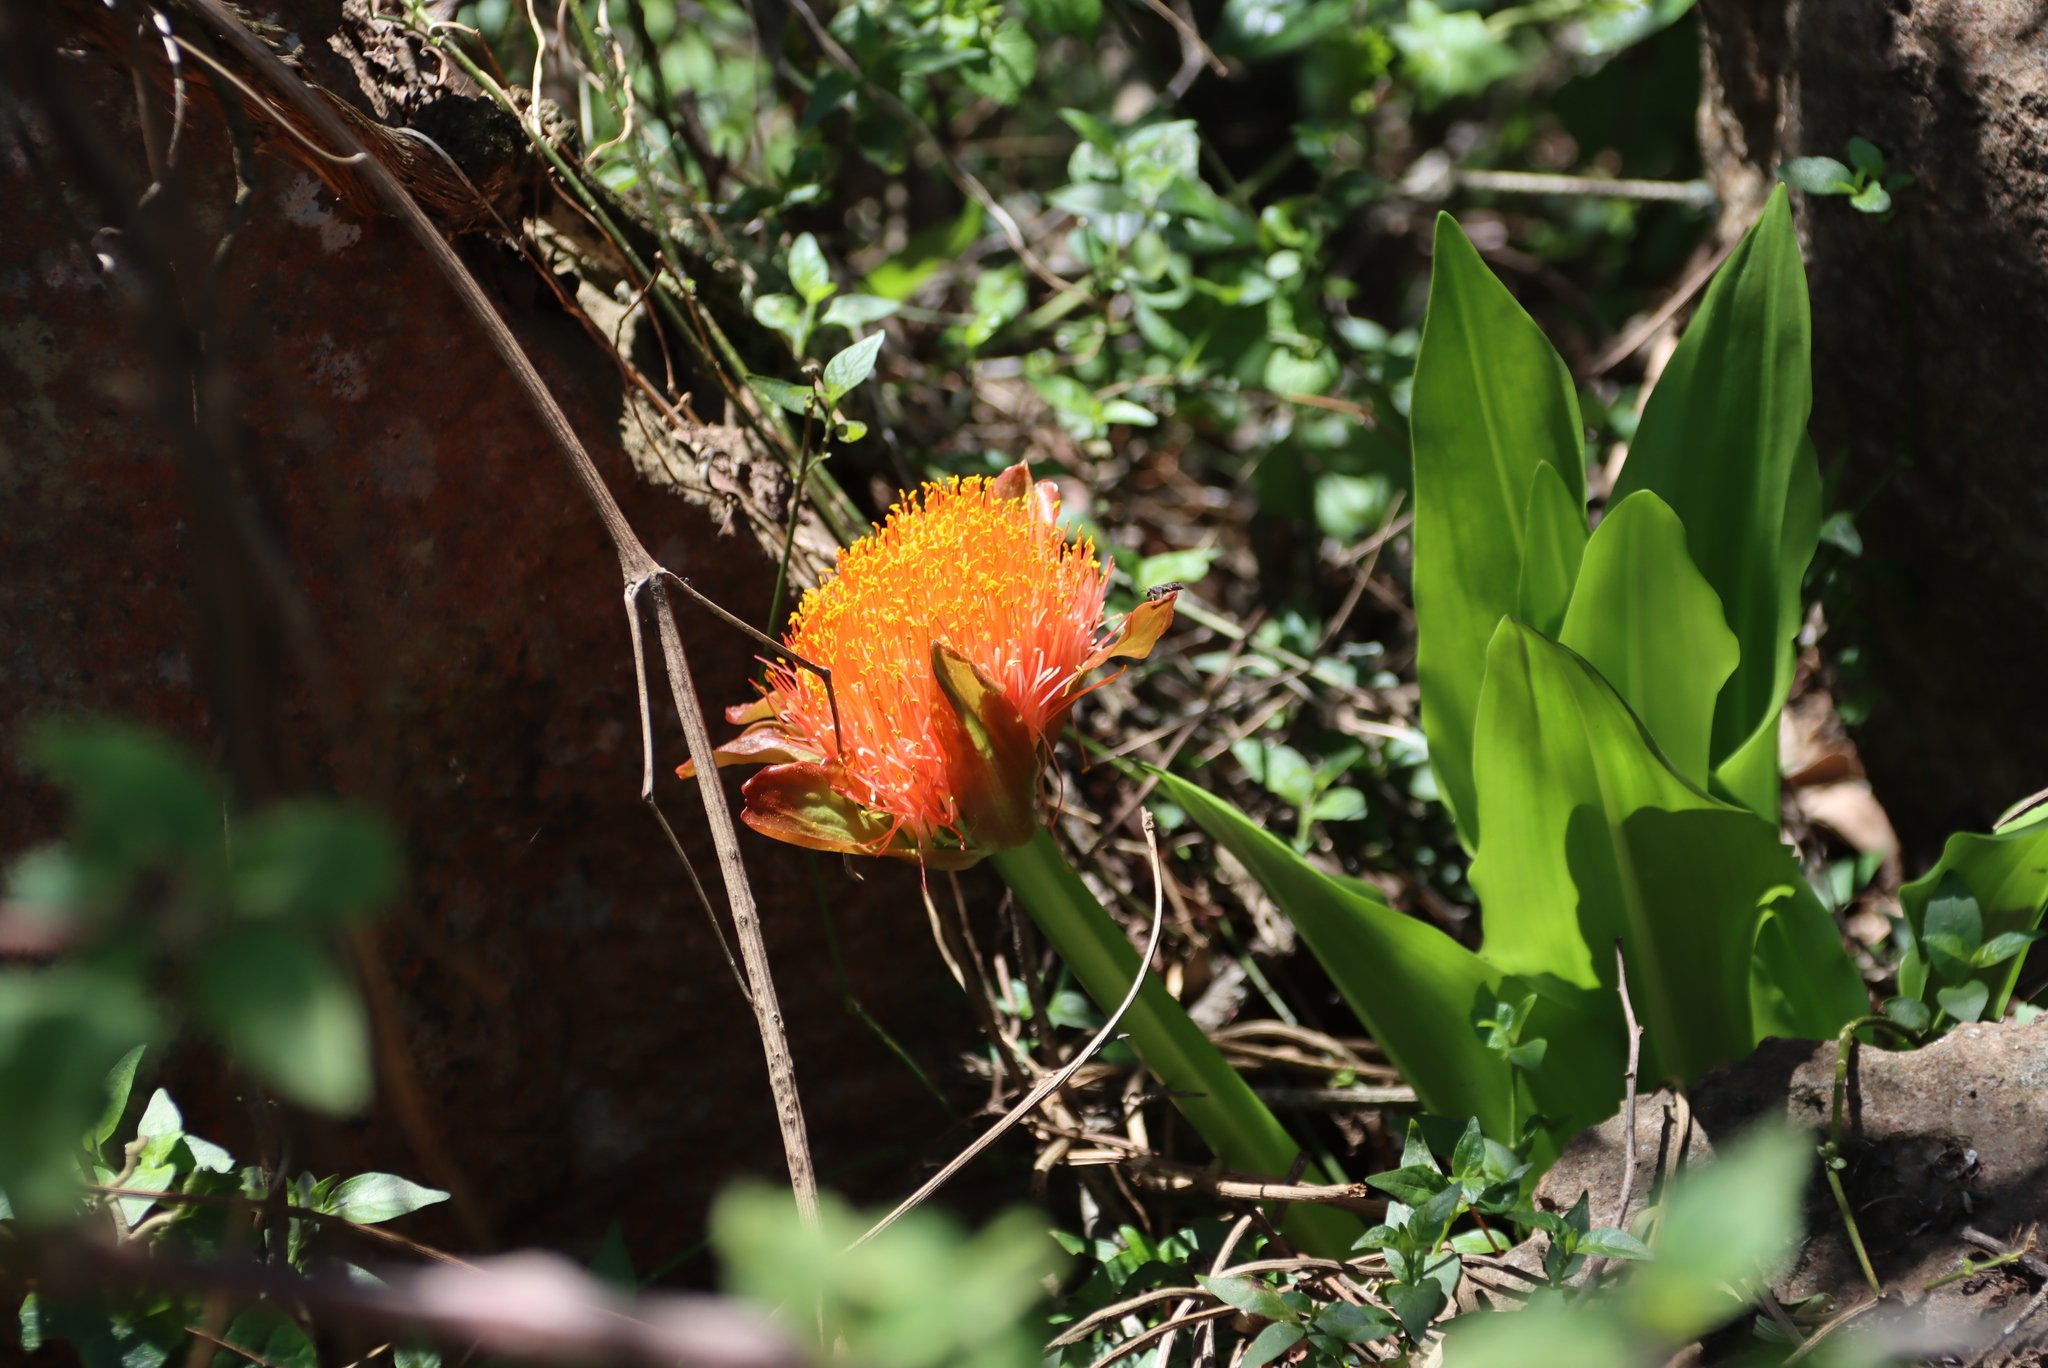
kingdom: Plantae
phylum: Tracheophyta
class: Liliopsida
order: Asparagales
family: Amaryllidaceae
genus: Scadoxus
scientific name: Scadoxus puniceus
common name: Royal-paintbrush
